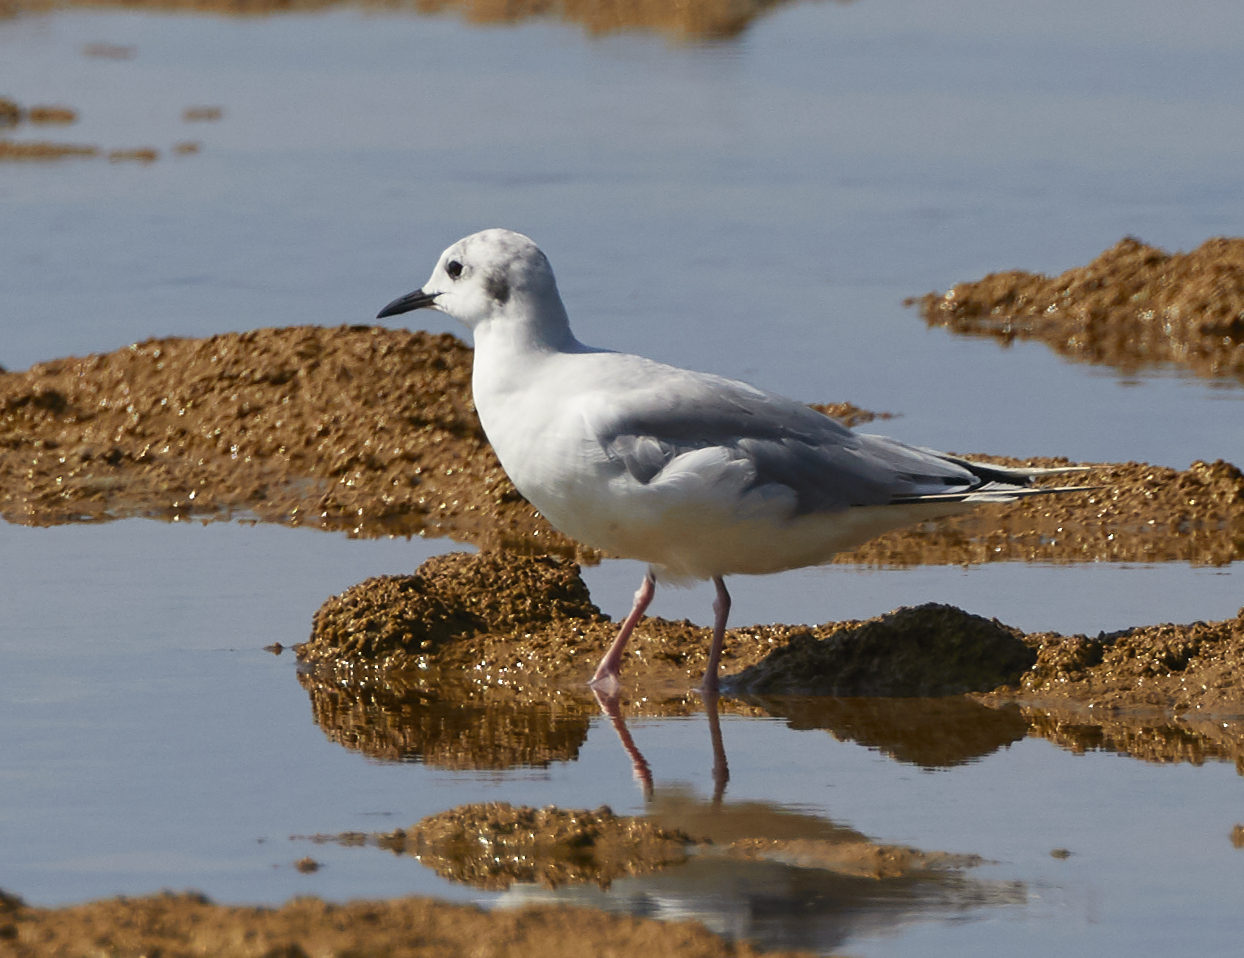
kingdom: Animalia
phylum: Chordata
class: Aves
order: Charadriiformes
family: Laridae
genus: Chroicocephalus
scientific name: Chroicocephalus philadelphia
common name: Bonaparte's gull
